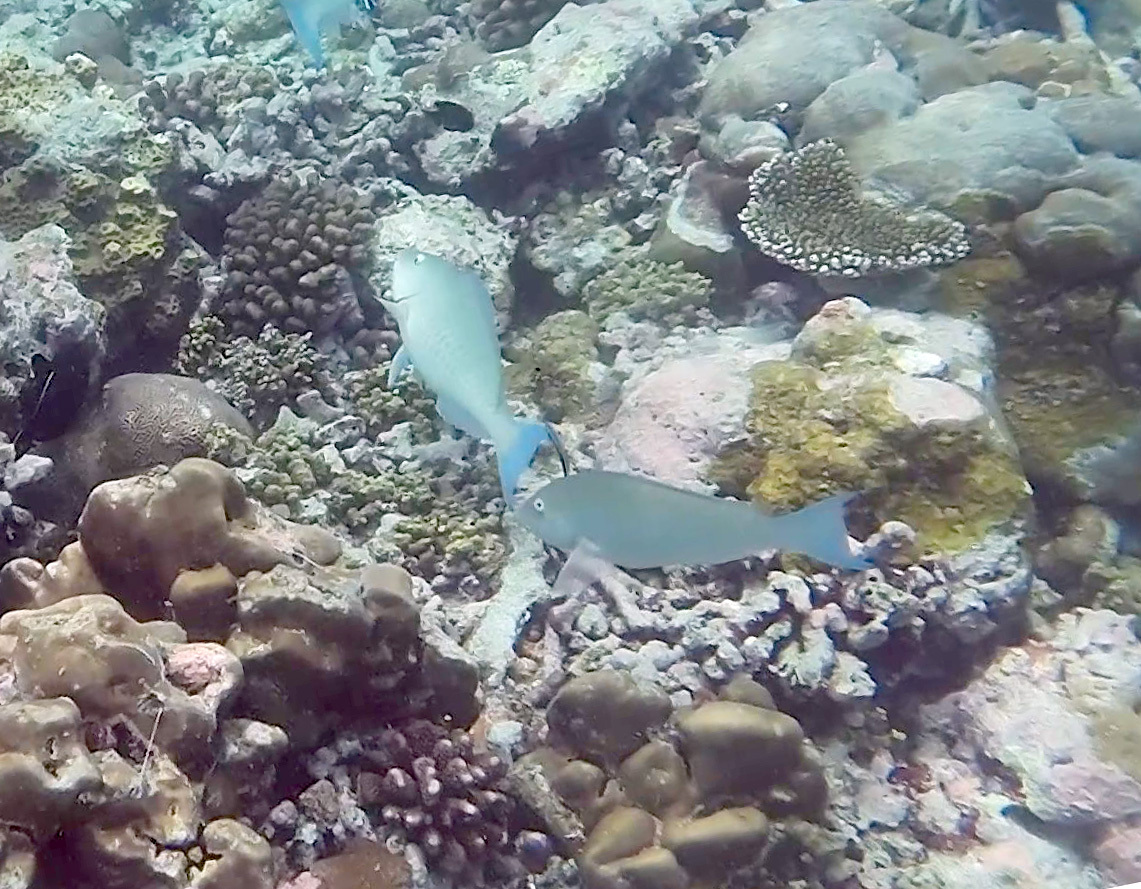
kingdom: Animalia
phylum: Chordata
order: Perciformes
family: Scaridae
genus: Hipposcarus
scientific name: Hipposcarus harid
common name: Candelamoa parrotfish
